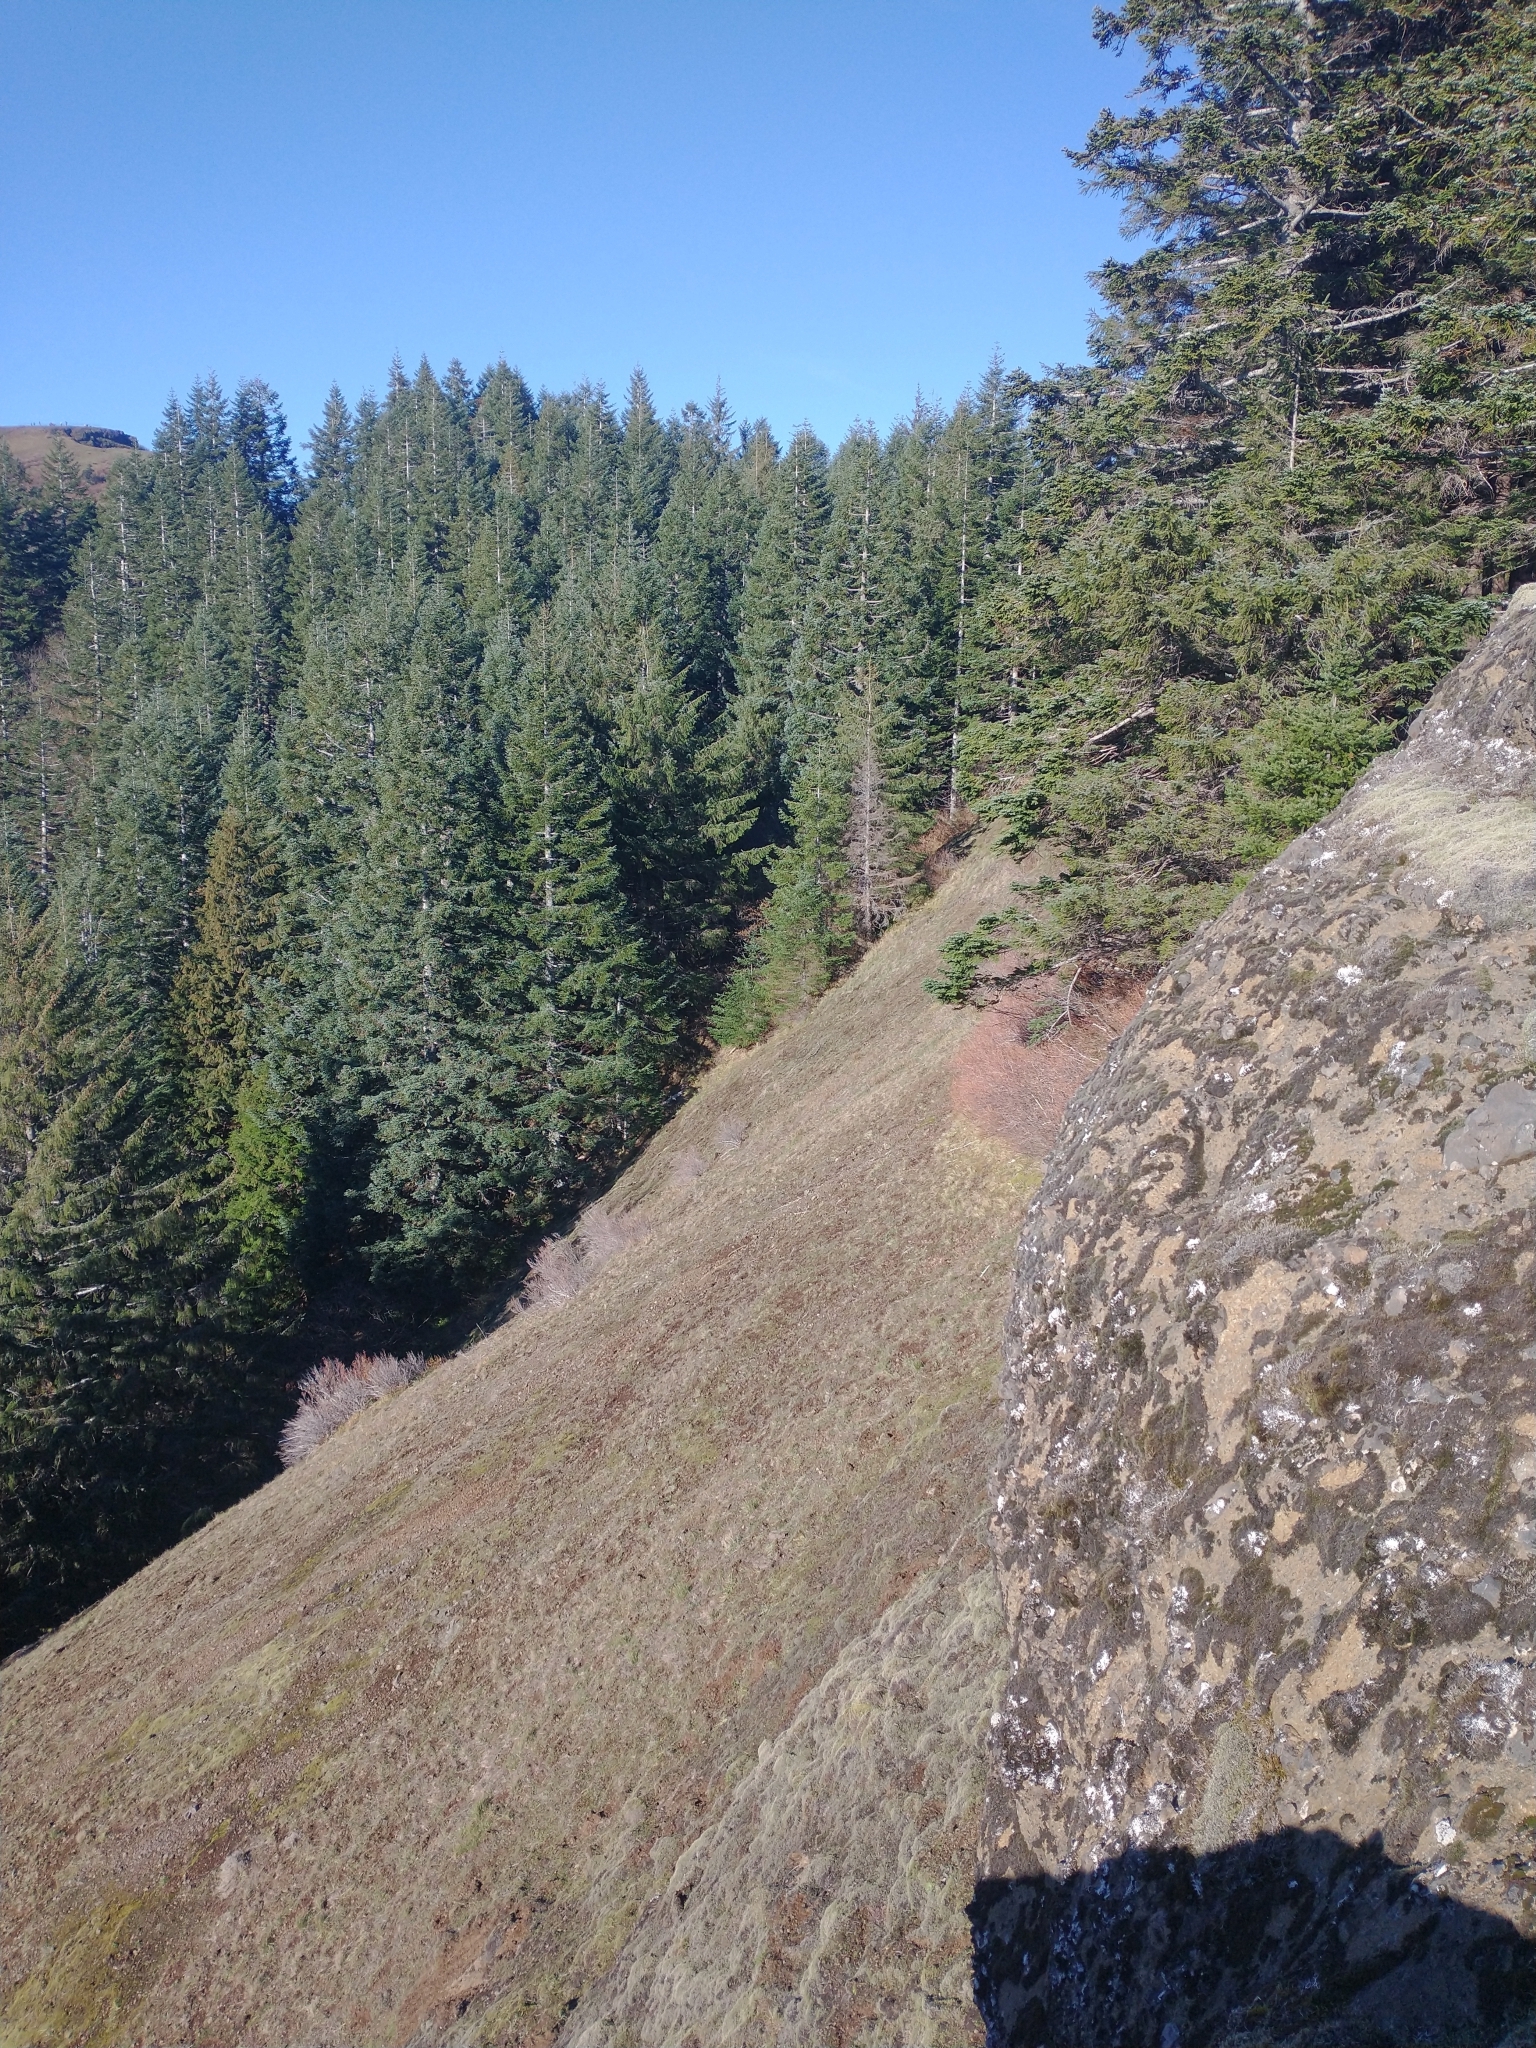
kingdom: Plantae
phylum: Tracheophyta
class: Pinopsida
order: Pinales
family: Pinaceae
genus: Abies
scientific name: Abies procera
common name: Noble fir
